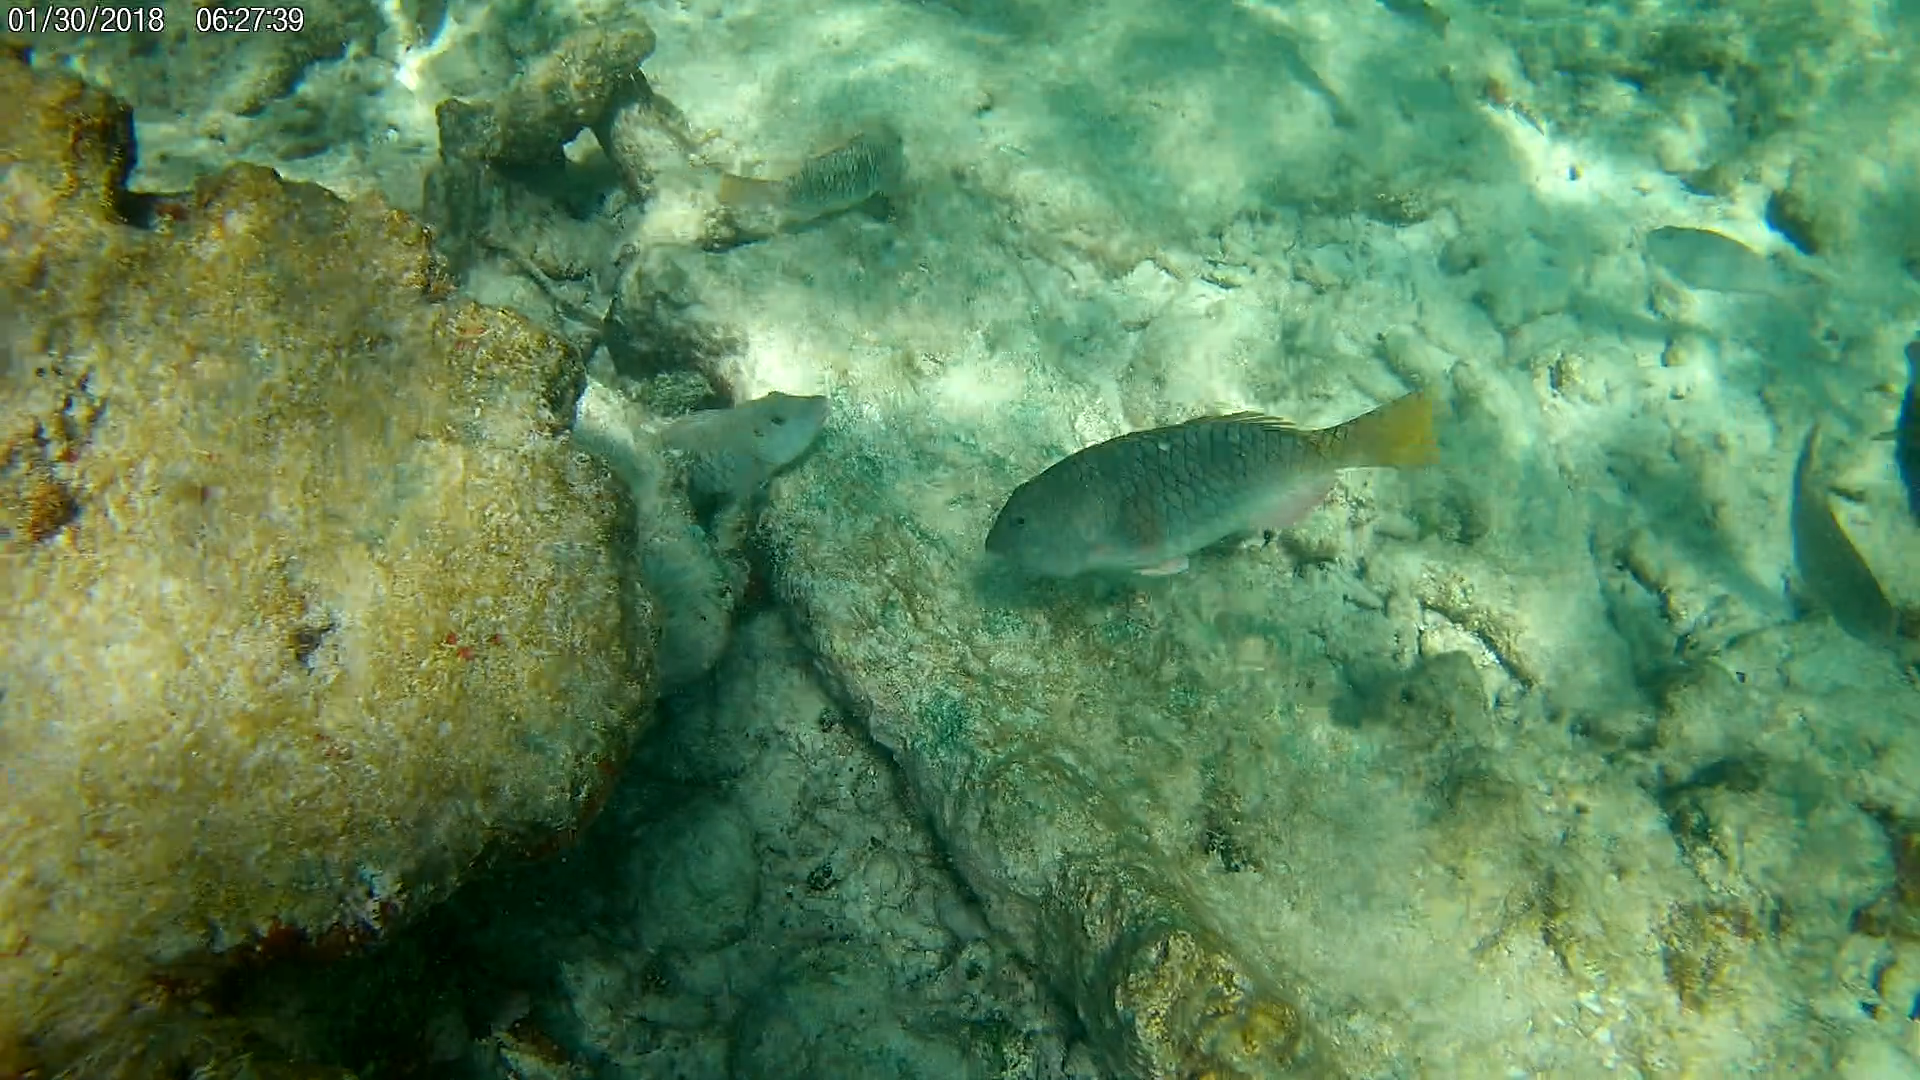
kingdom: Animalia
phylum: Chordata
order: Perciformes
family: Scaridae
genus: Sparisoma
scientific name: Sparisoma rubripinne
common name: Redfin parrotfish
